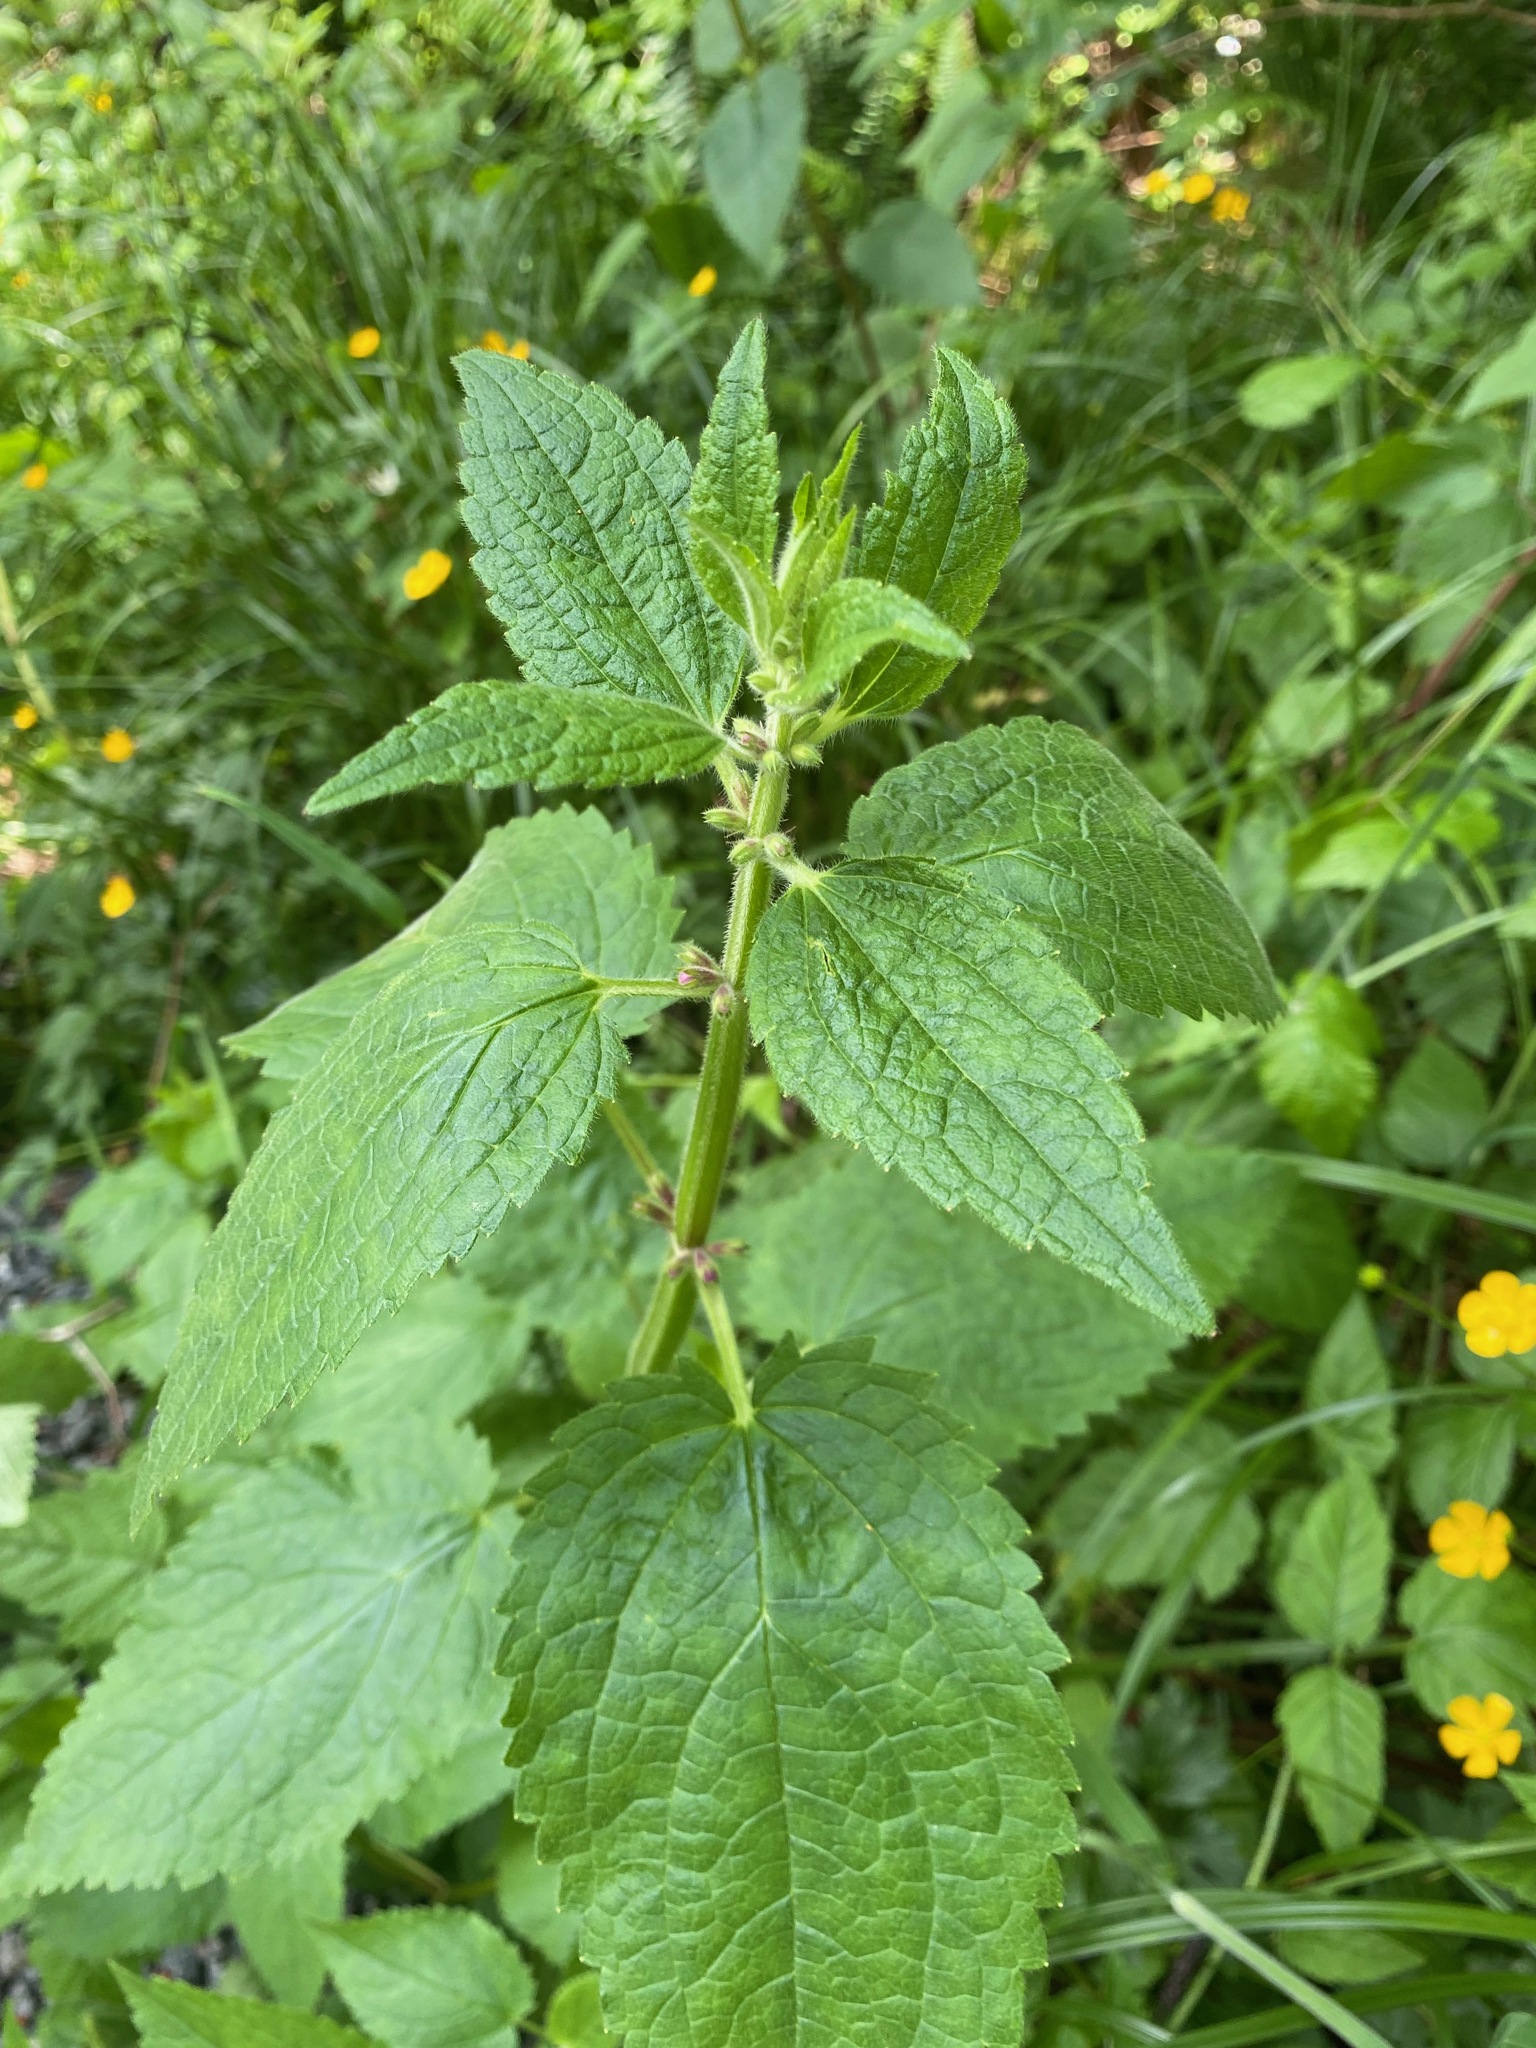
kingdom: Plantae
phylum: Tracheophyta
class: Magnoliopsida
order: Lamiales
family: Lamiaceae
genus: Stachys
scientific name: Stachys chamissonis
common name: Coastal hedge-nettle
